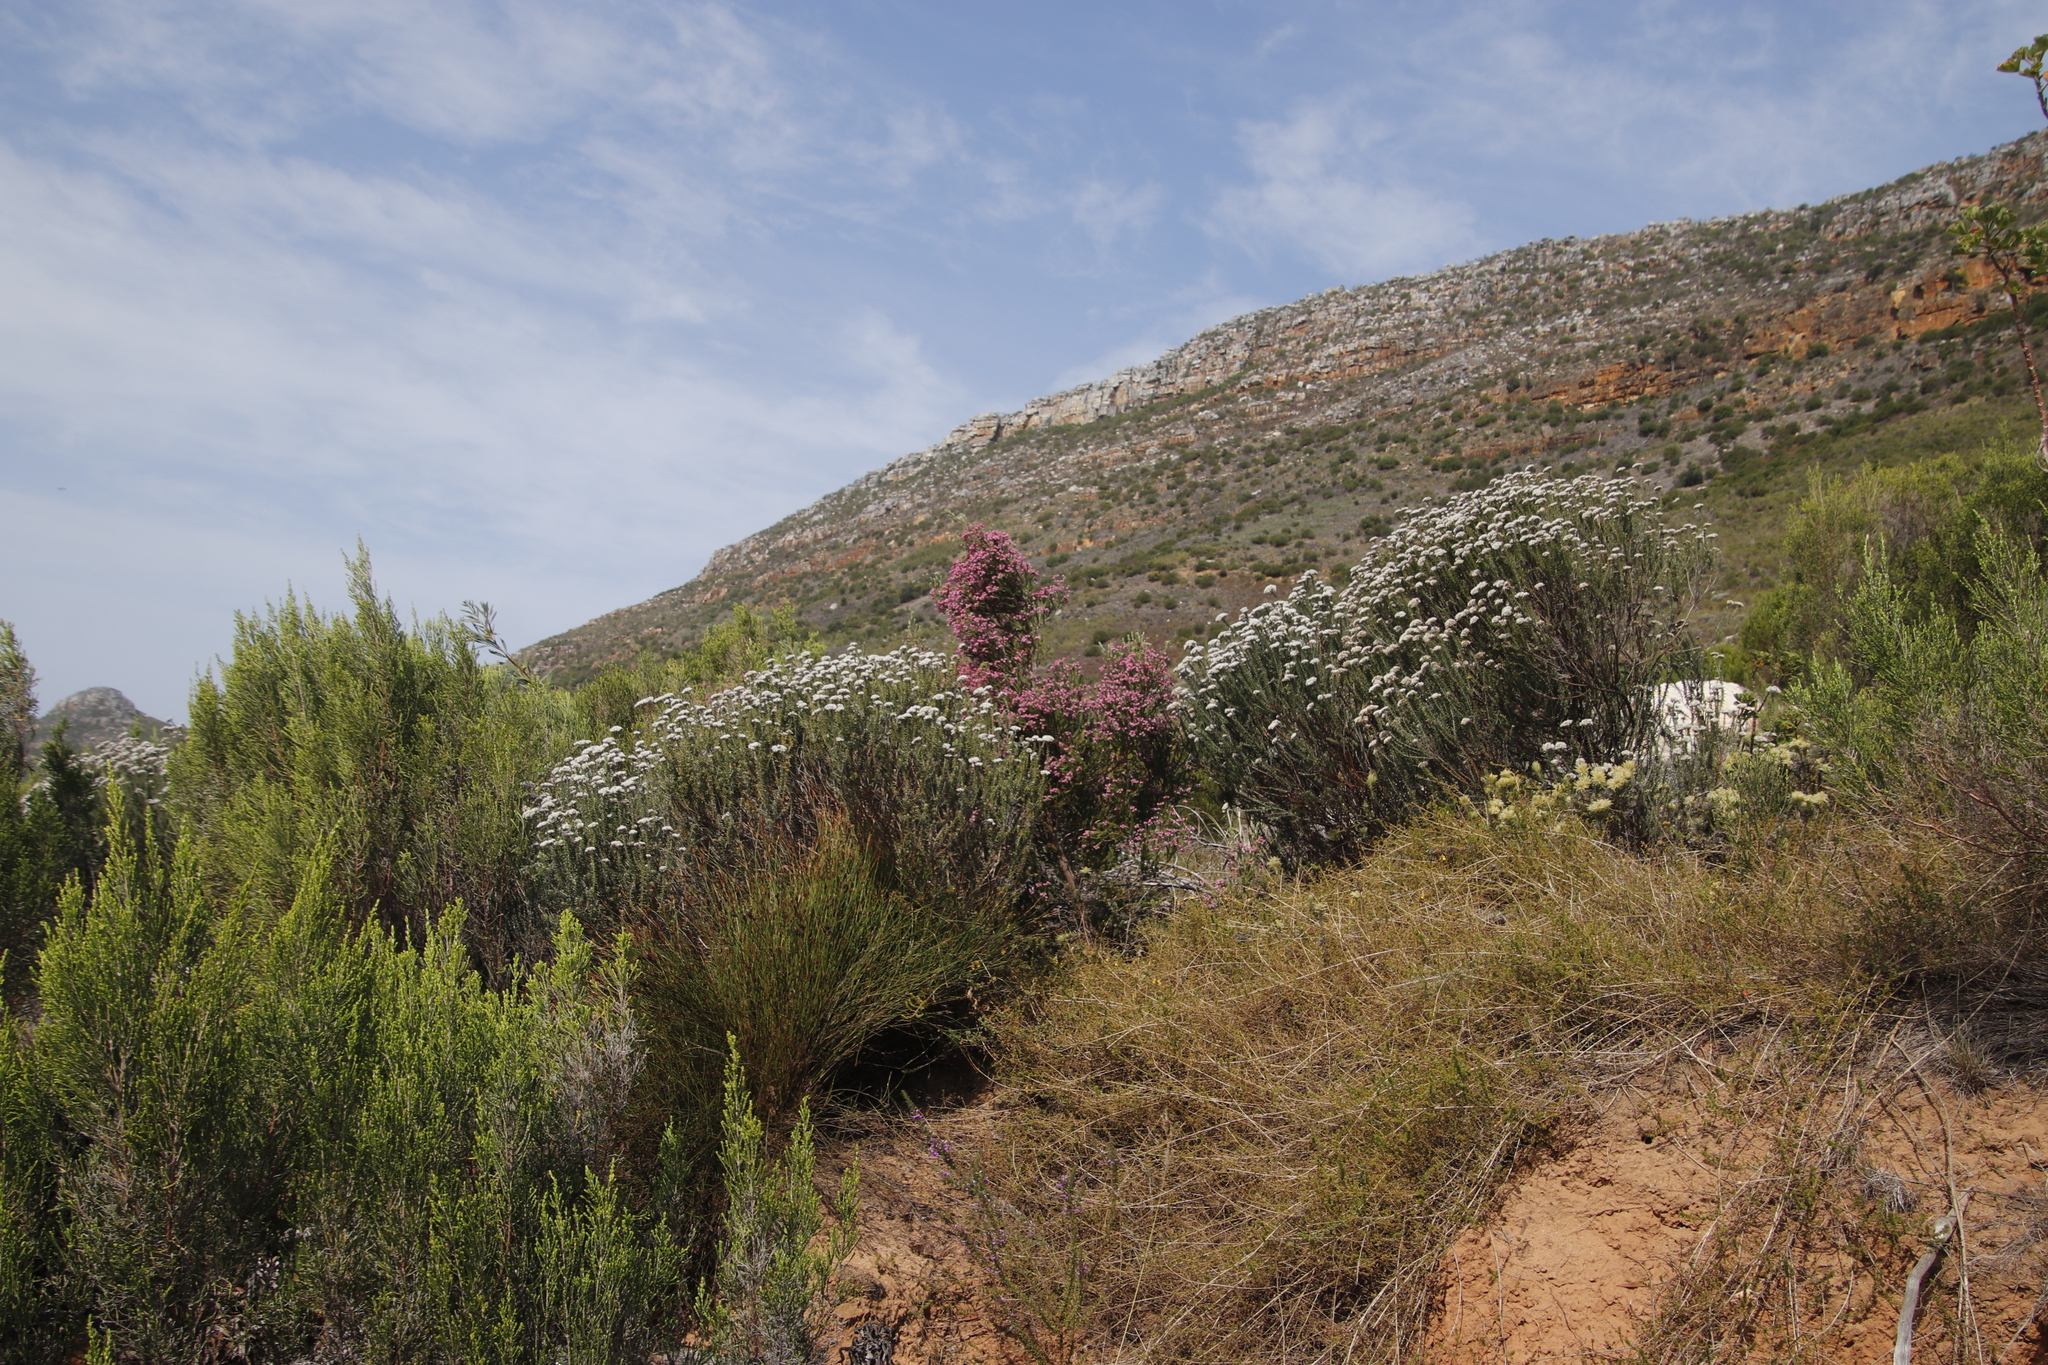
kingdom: Plantae
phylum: Tracheophyta
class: Magnoliopsida
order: Ericales
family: Ericaceae
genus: Erica
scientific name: Erica baccans
